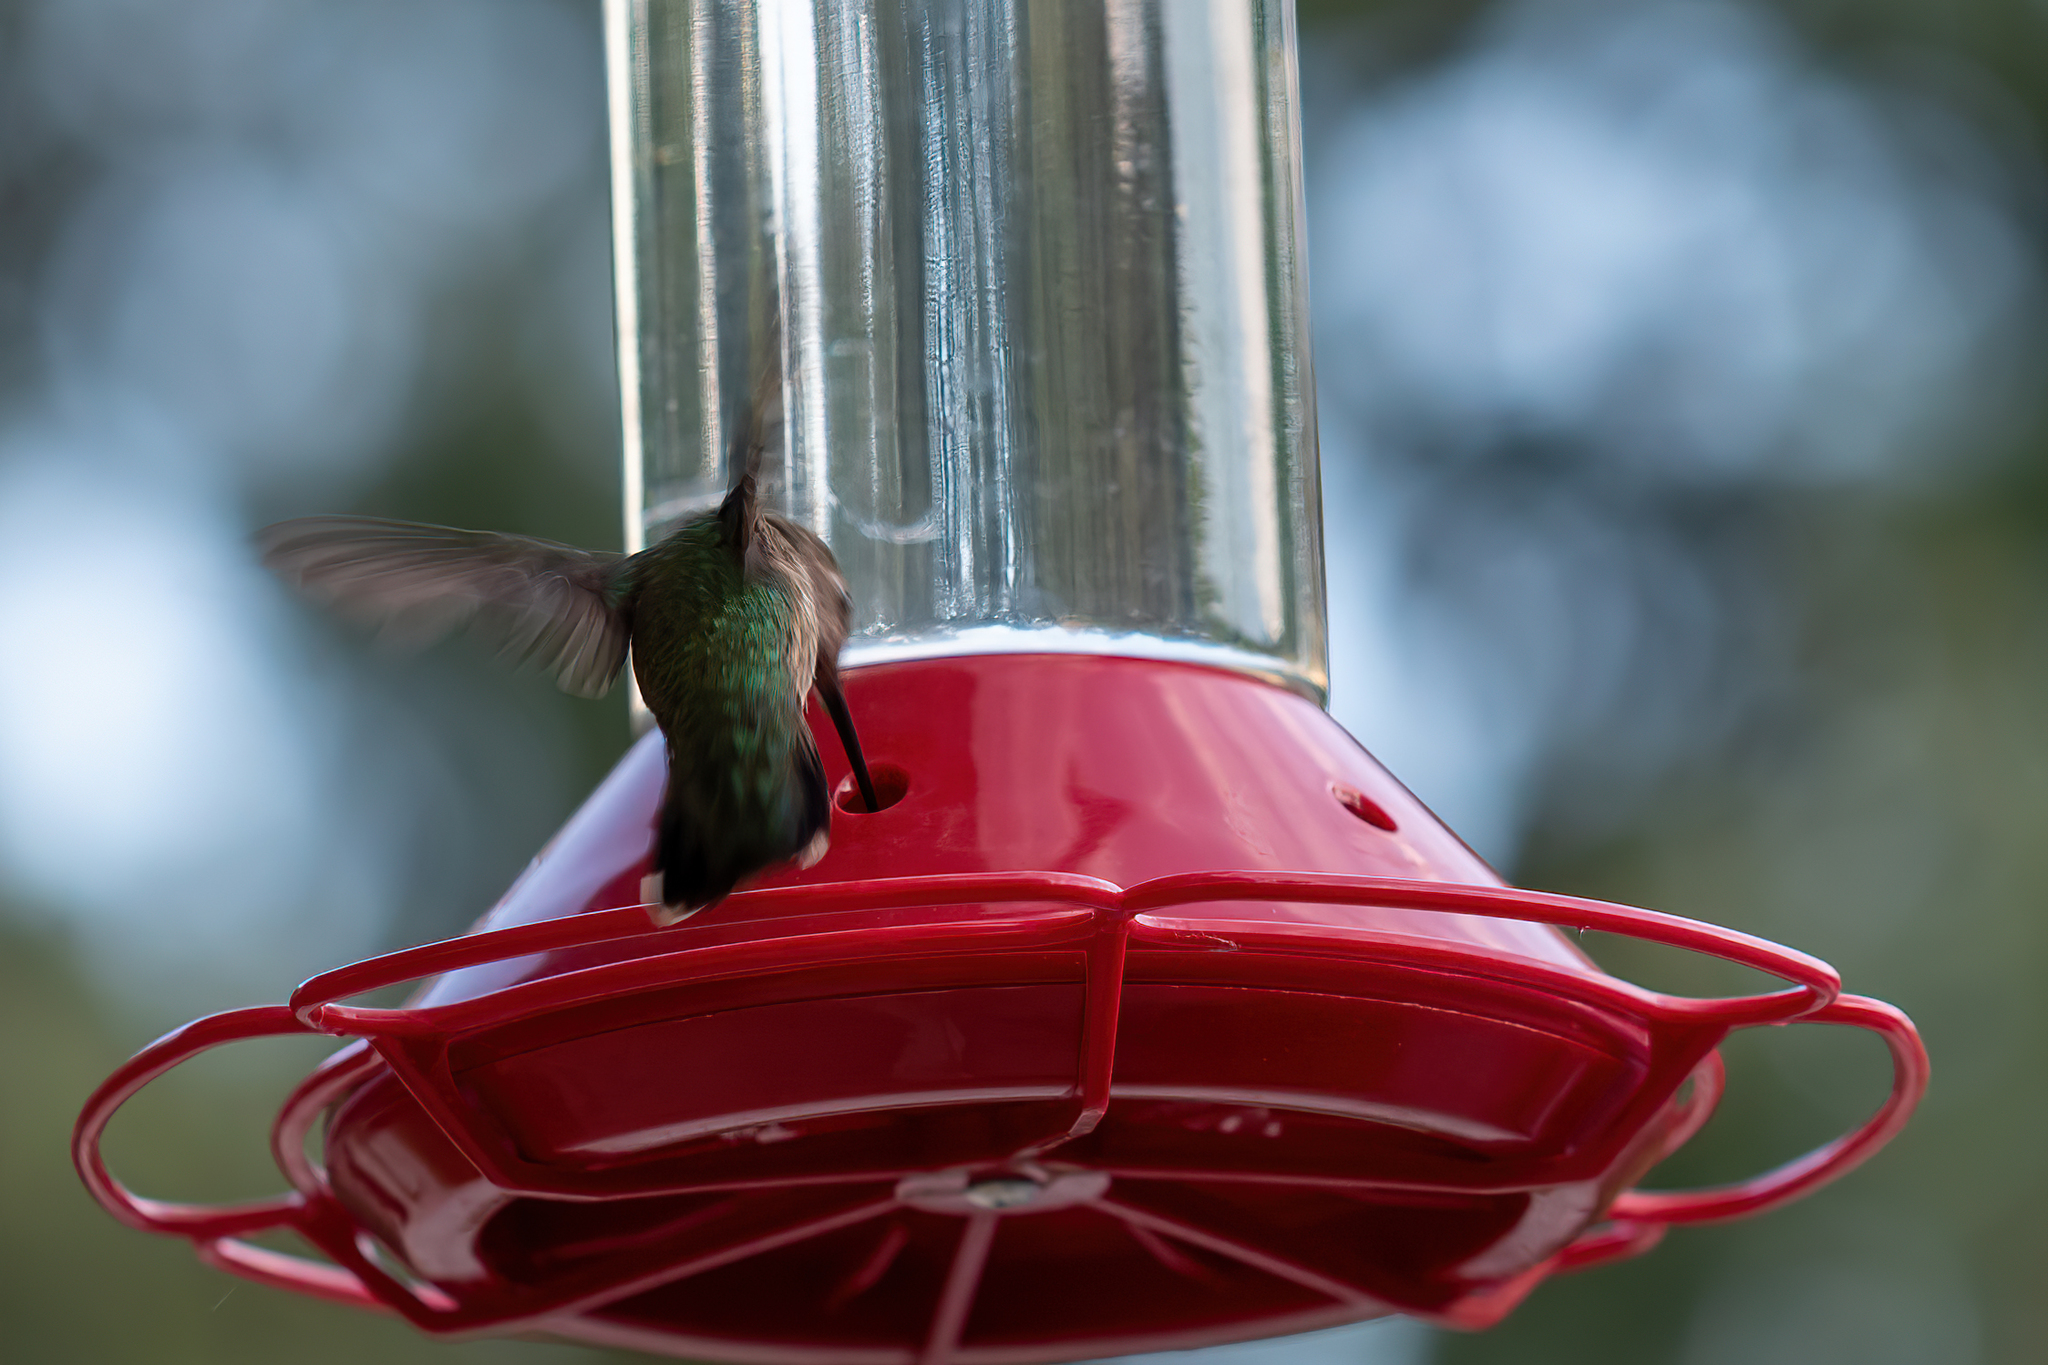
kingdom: Animalia
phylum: Chordata
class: Aves
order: Apodiformes
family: Trochilidae
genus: Calypte
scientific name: Calypte anna
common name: Anna's hummingbird
